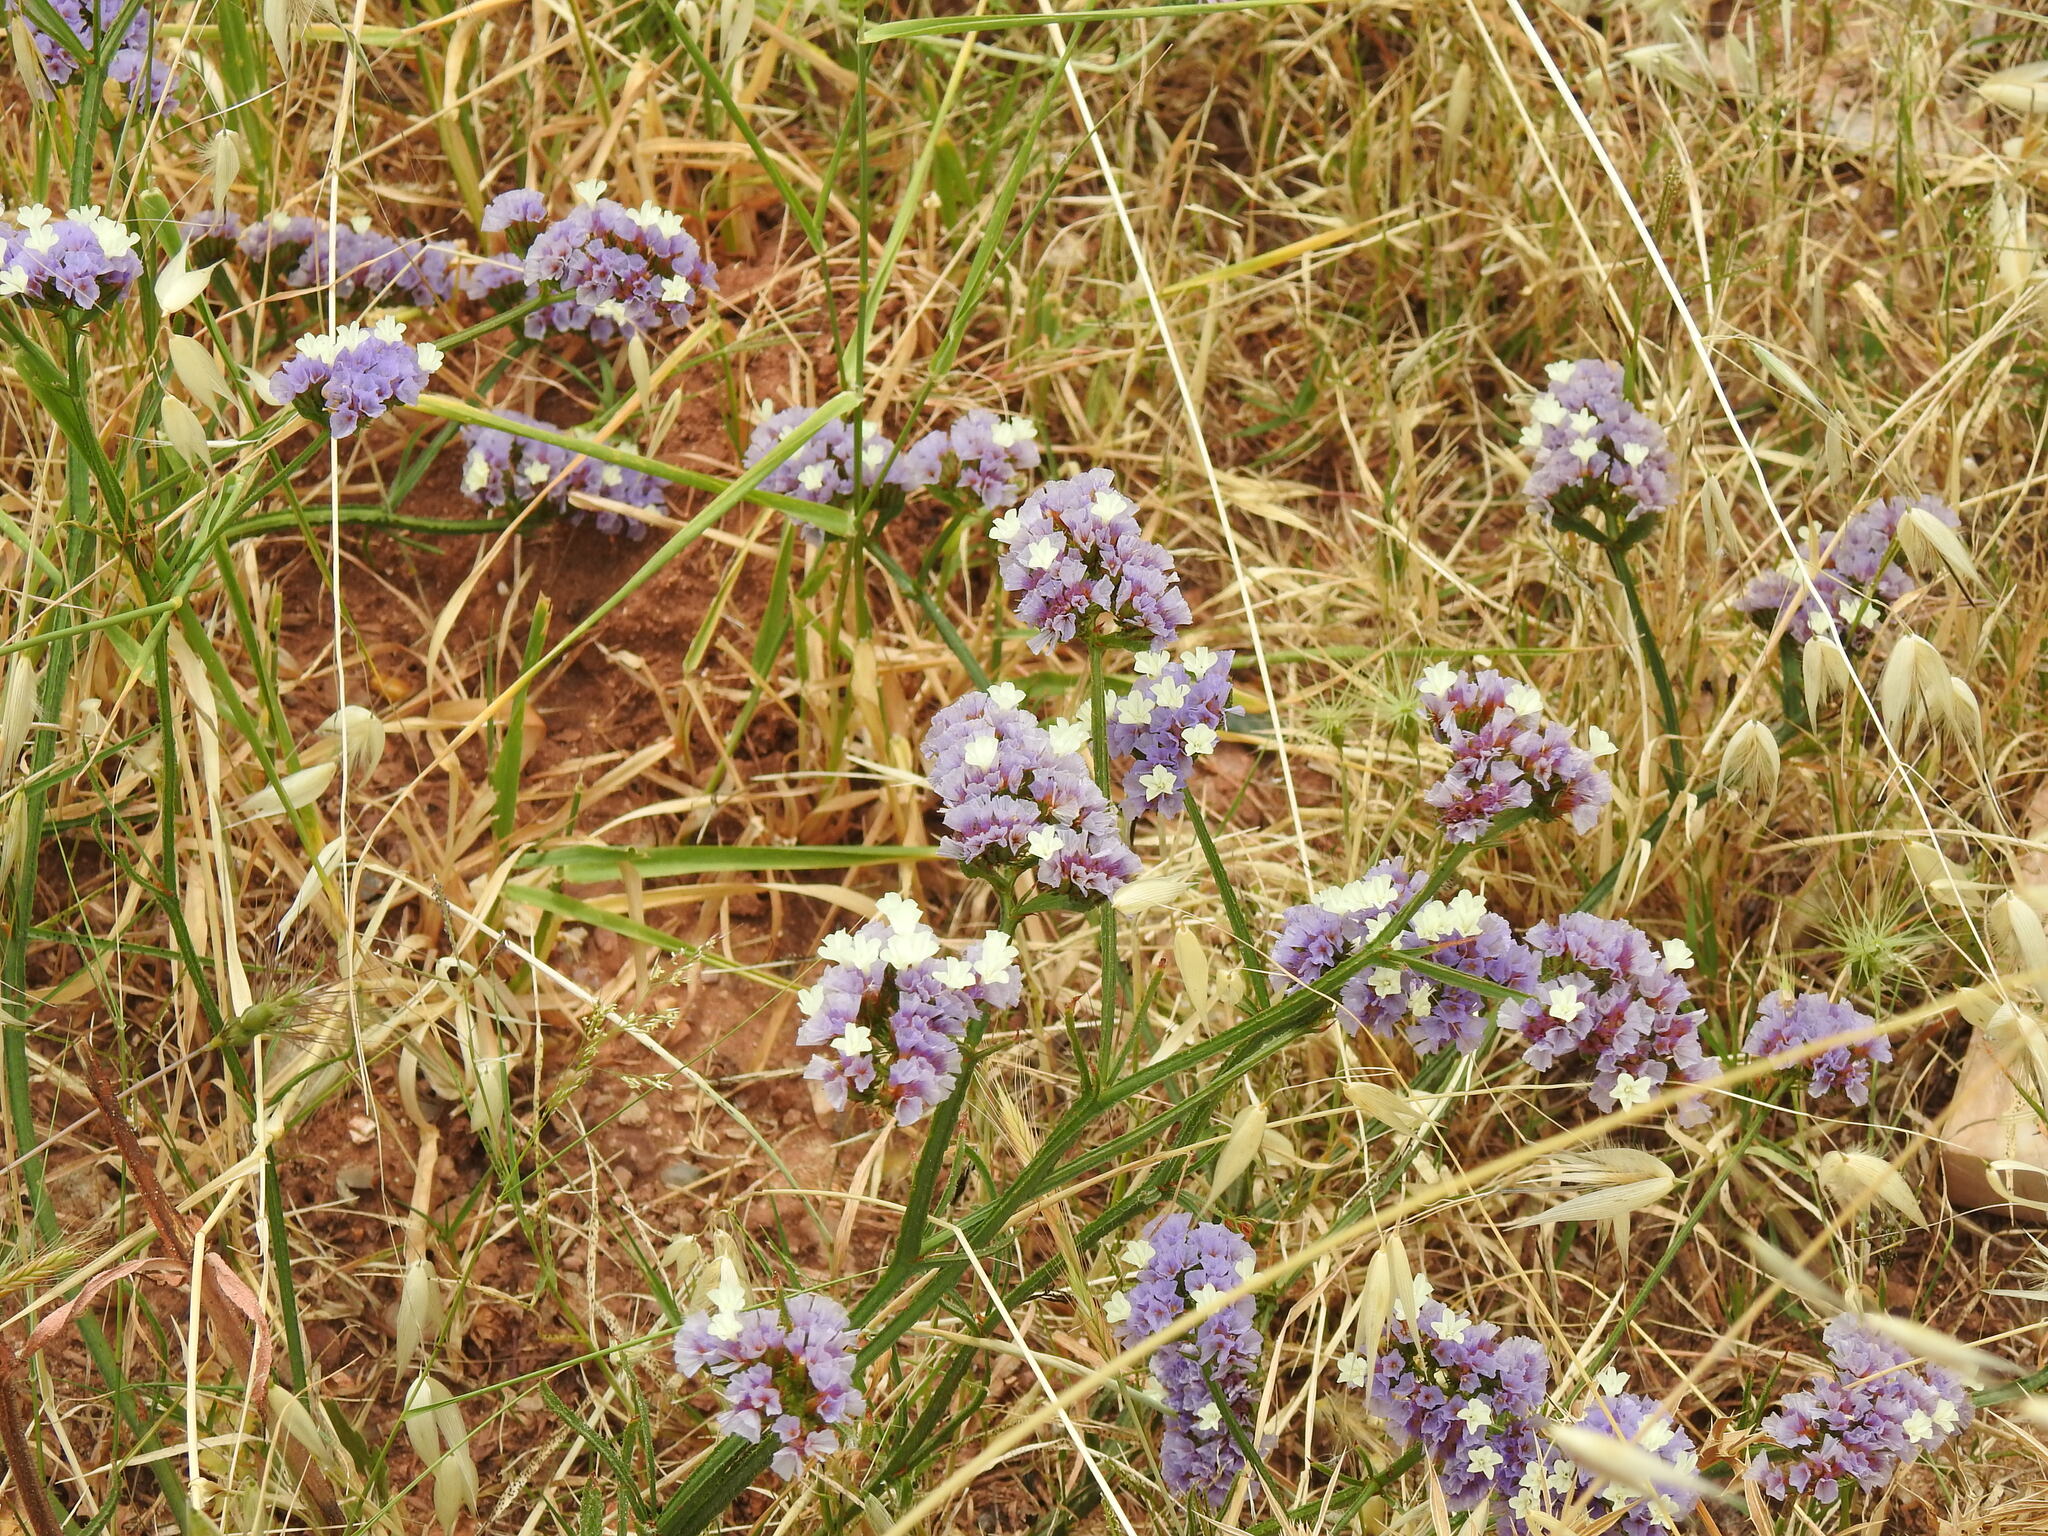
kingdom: Plantae
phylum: Tracheophyta
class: Magnoliopsida
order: Caryophyllales
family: Plumbaginaceae
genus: Limonium
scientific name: Limonium sinuatum
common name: Statice
